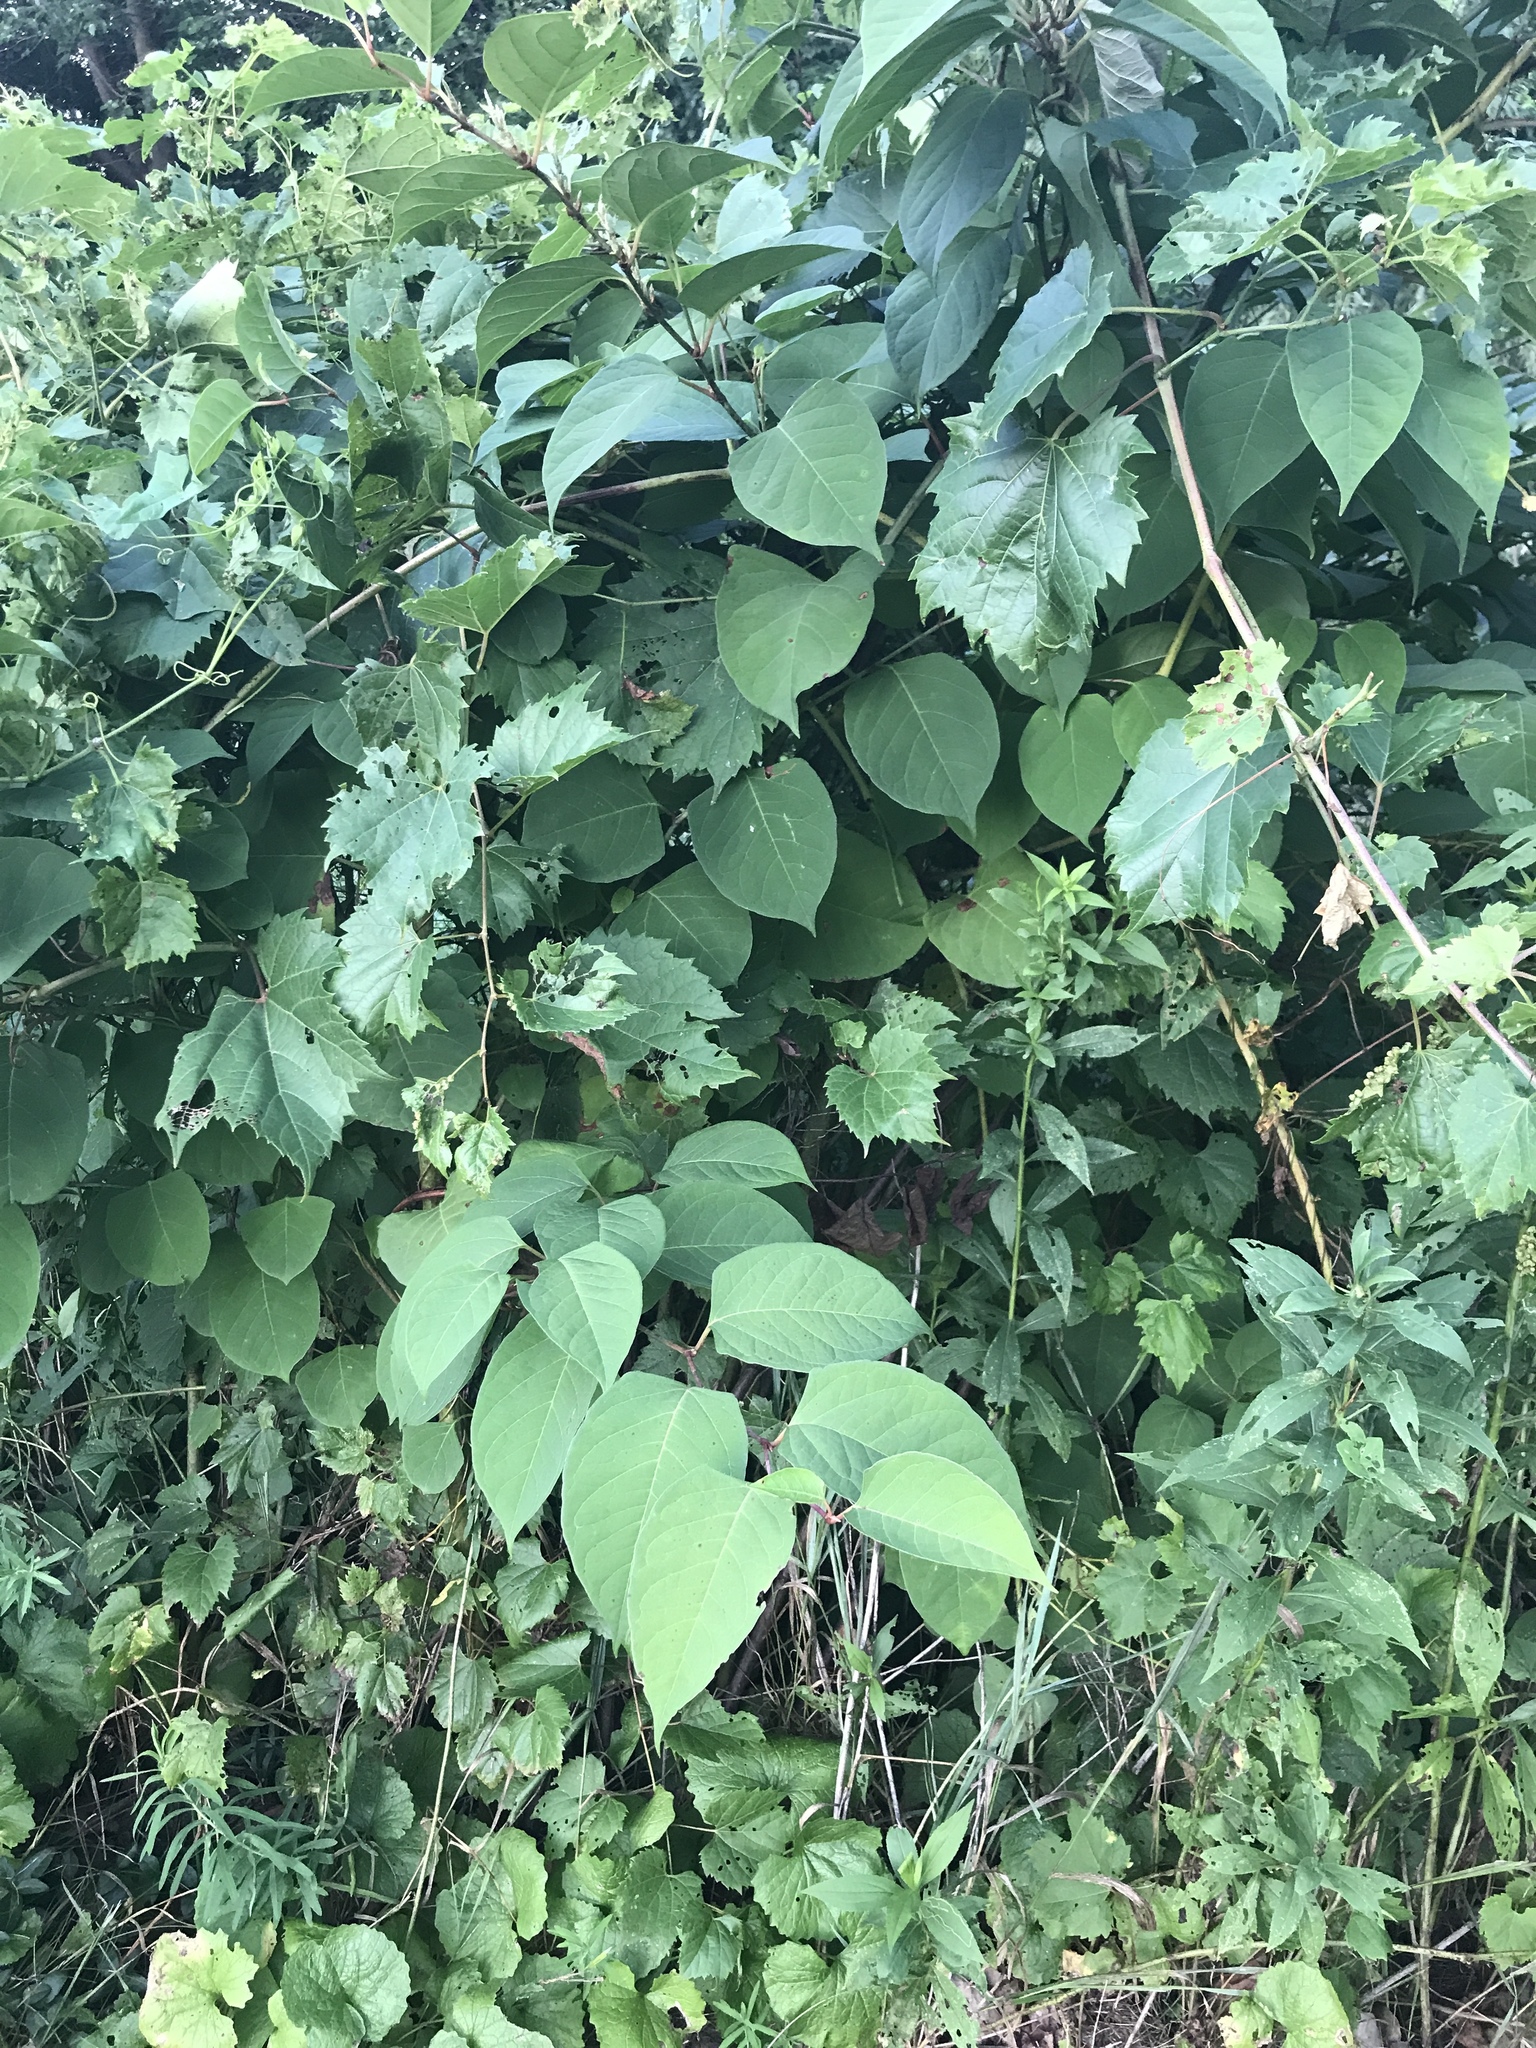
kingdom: Plantae
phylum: Tracheophyta
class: Magnoliopsida
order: Caryophyllales
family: Polygonaceae
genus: Reynoutria
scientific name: Reynoutria japonica
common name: Japanese knotweed
